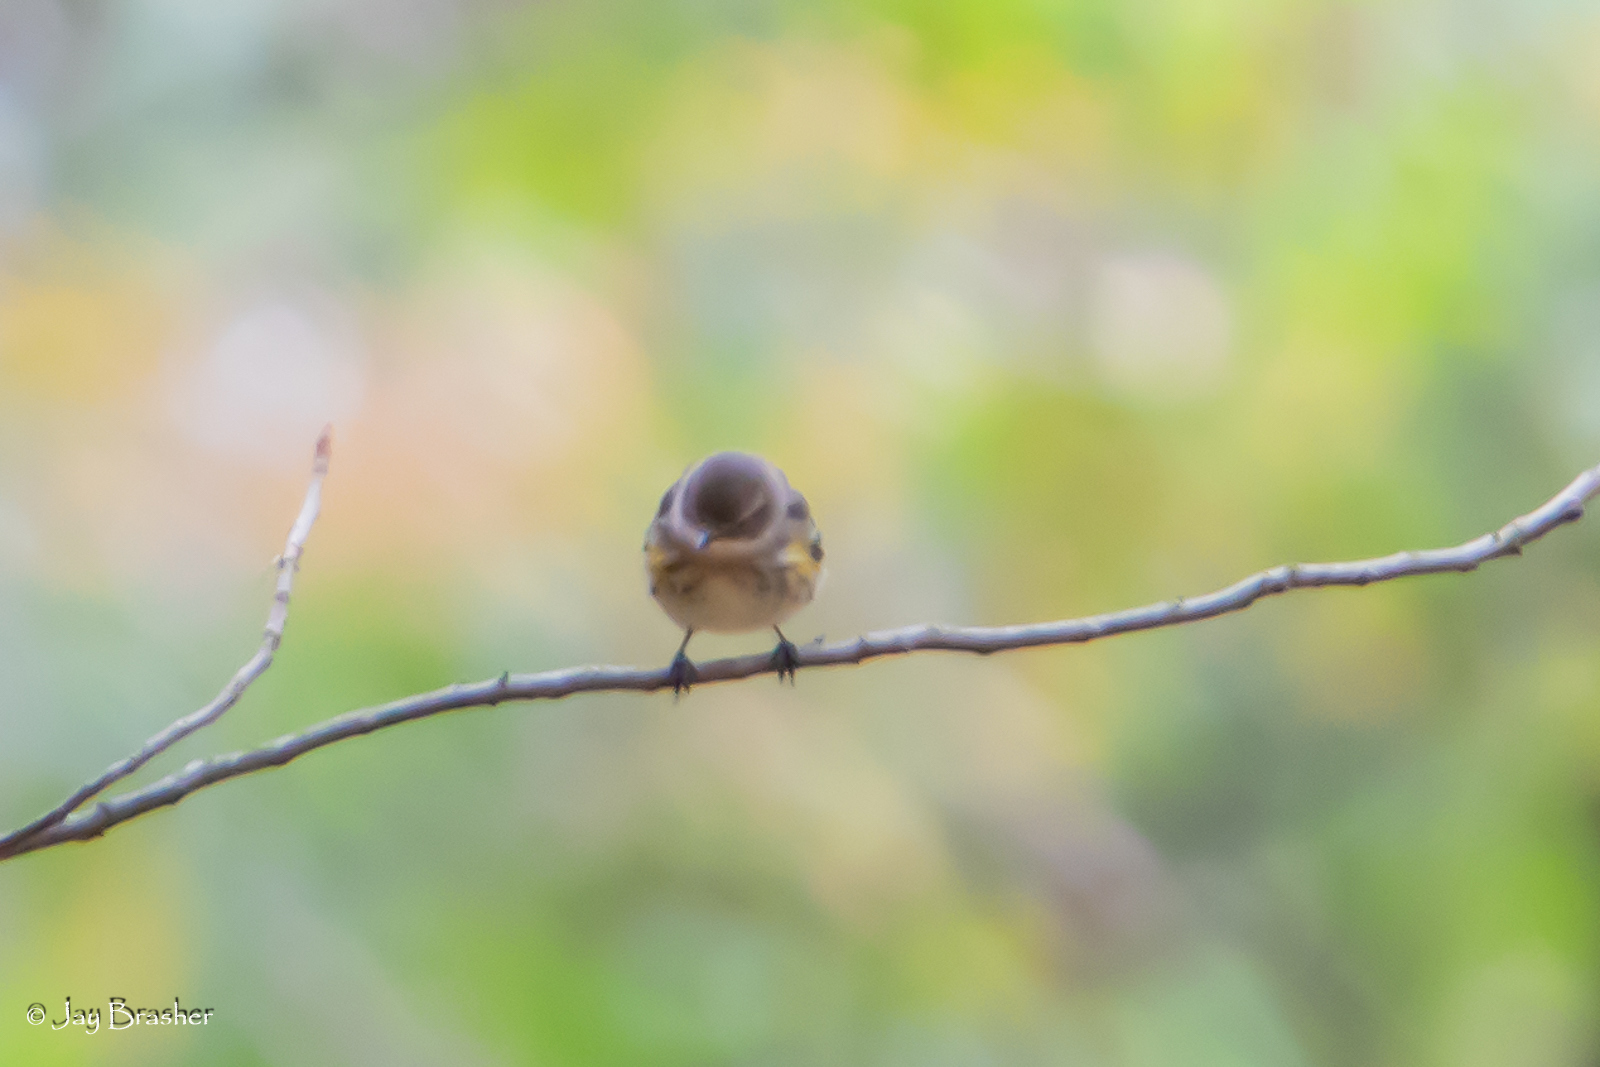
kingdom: Animalia
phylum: Chordata
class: Aves
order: Passeriformes
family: Parulidae
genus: Setophaga
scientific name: Setophaga coronata
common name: Myrtle warbler
